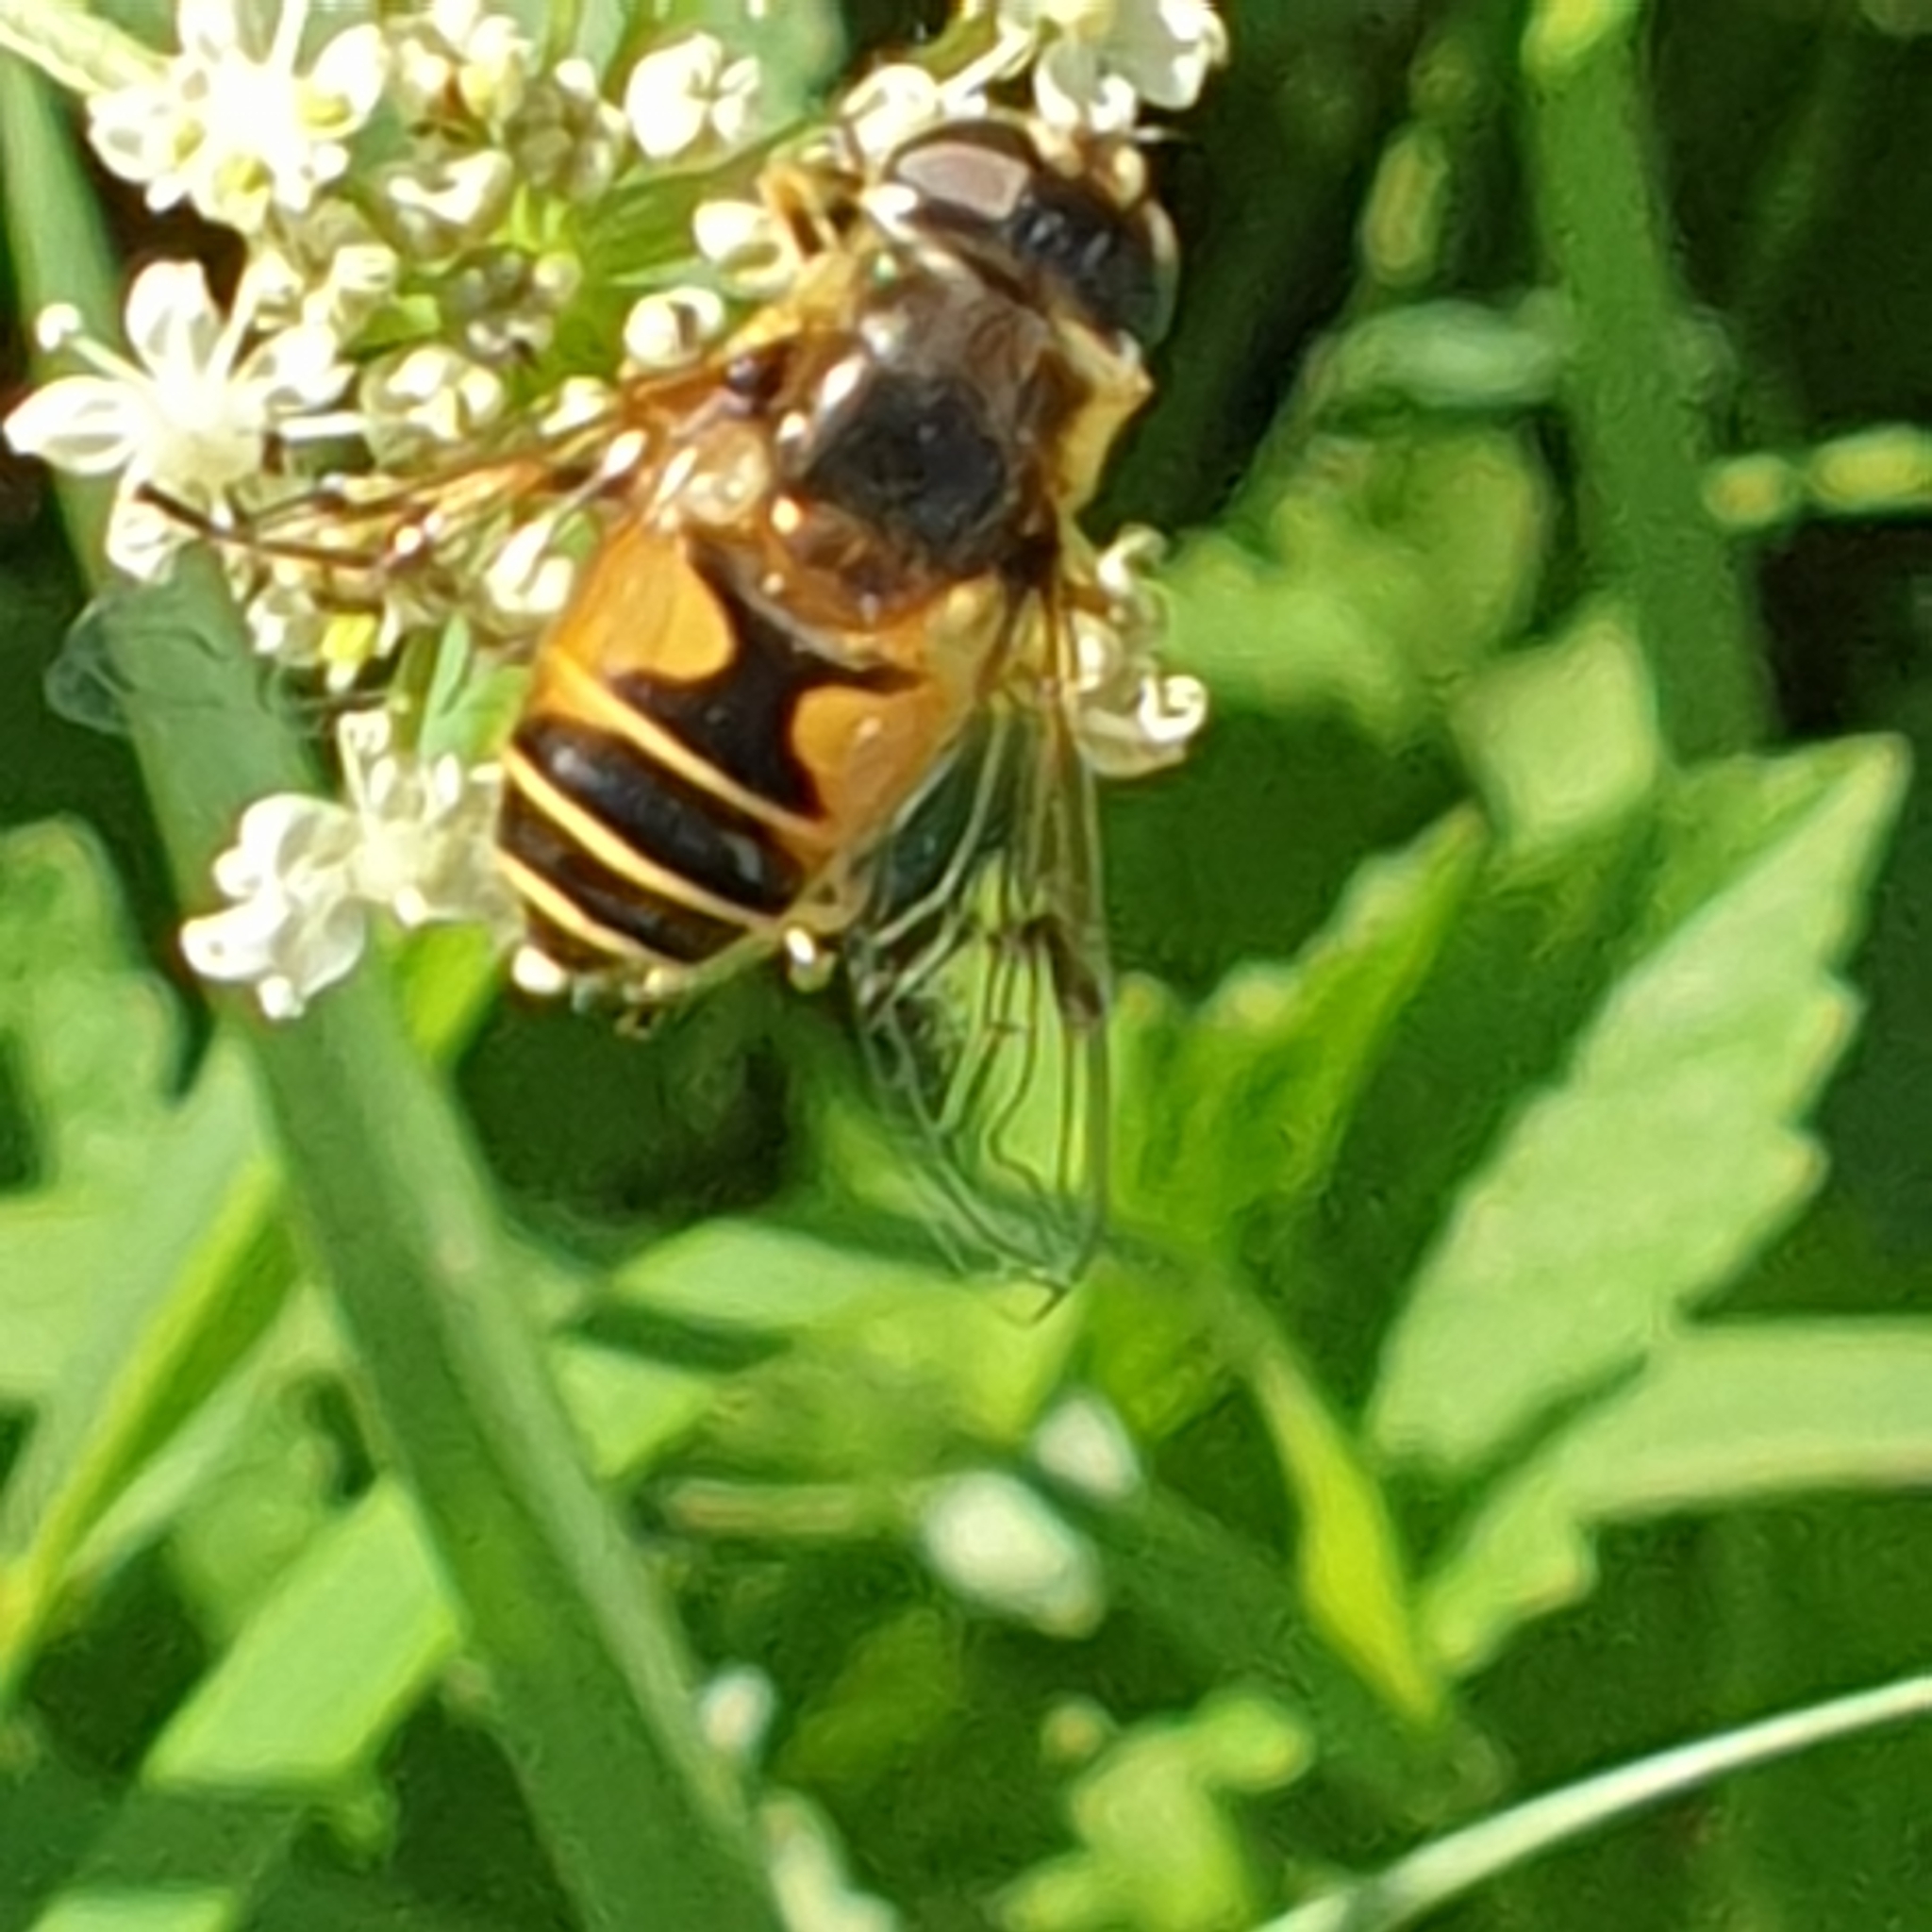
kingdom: Animalia
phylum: Arthropoda
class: Insecta
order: Diptera
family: Syrphidae
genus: Cheilosia
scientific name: Cheilosia morio
